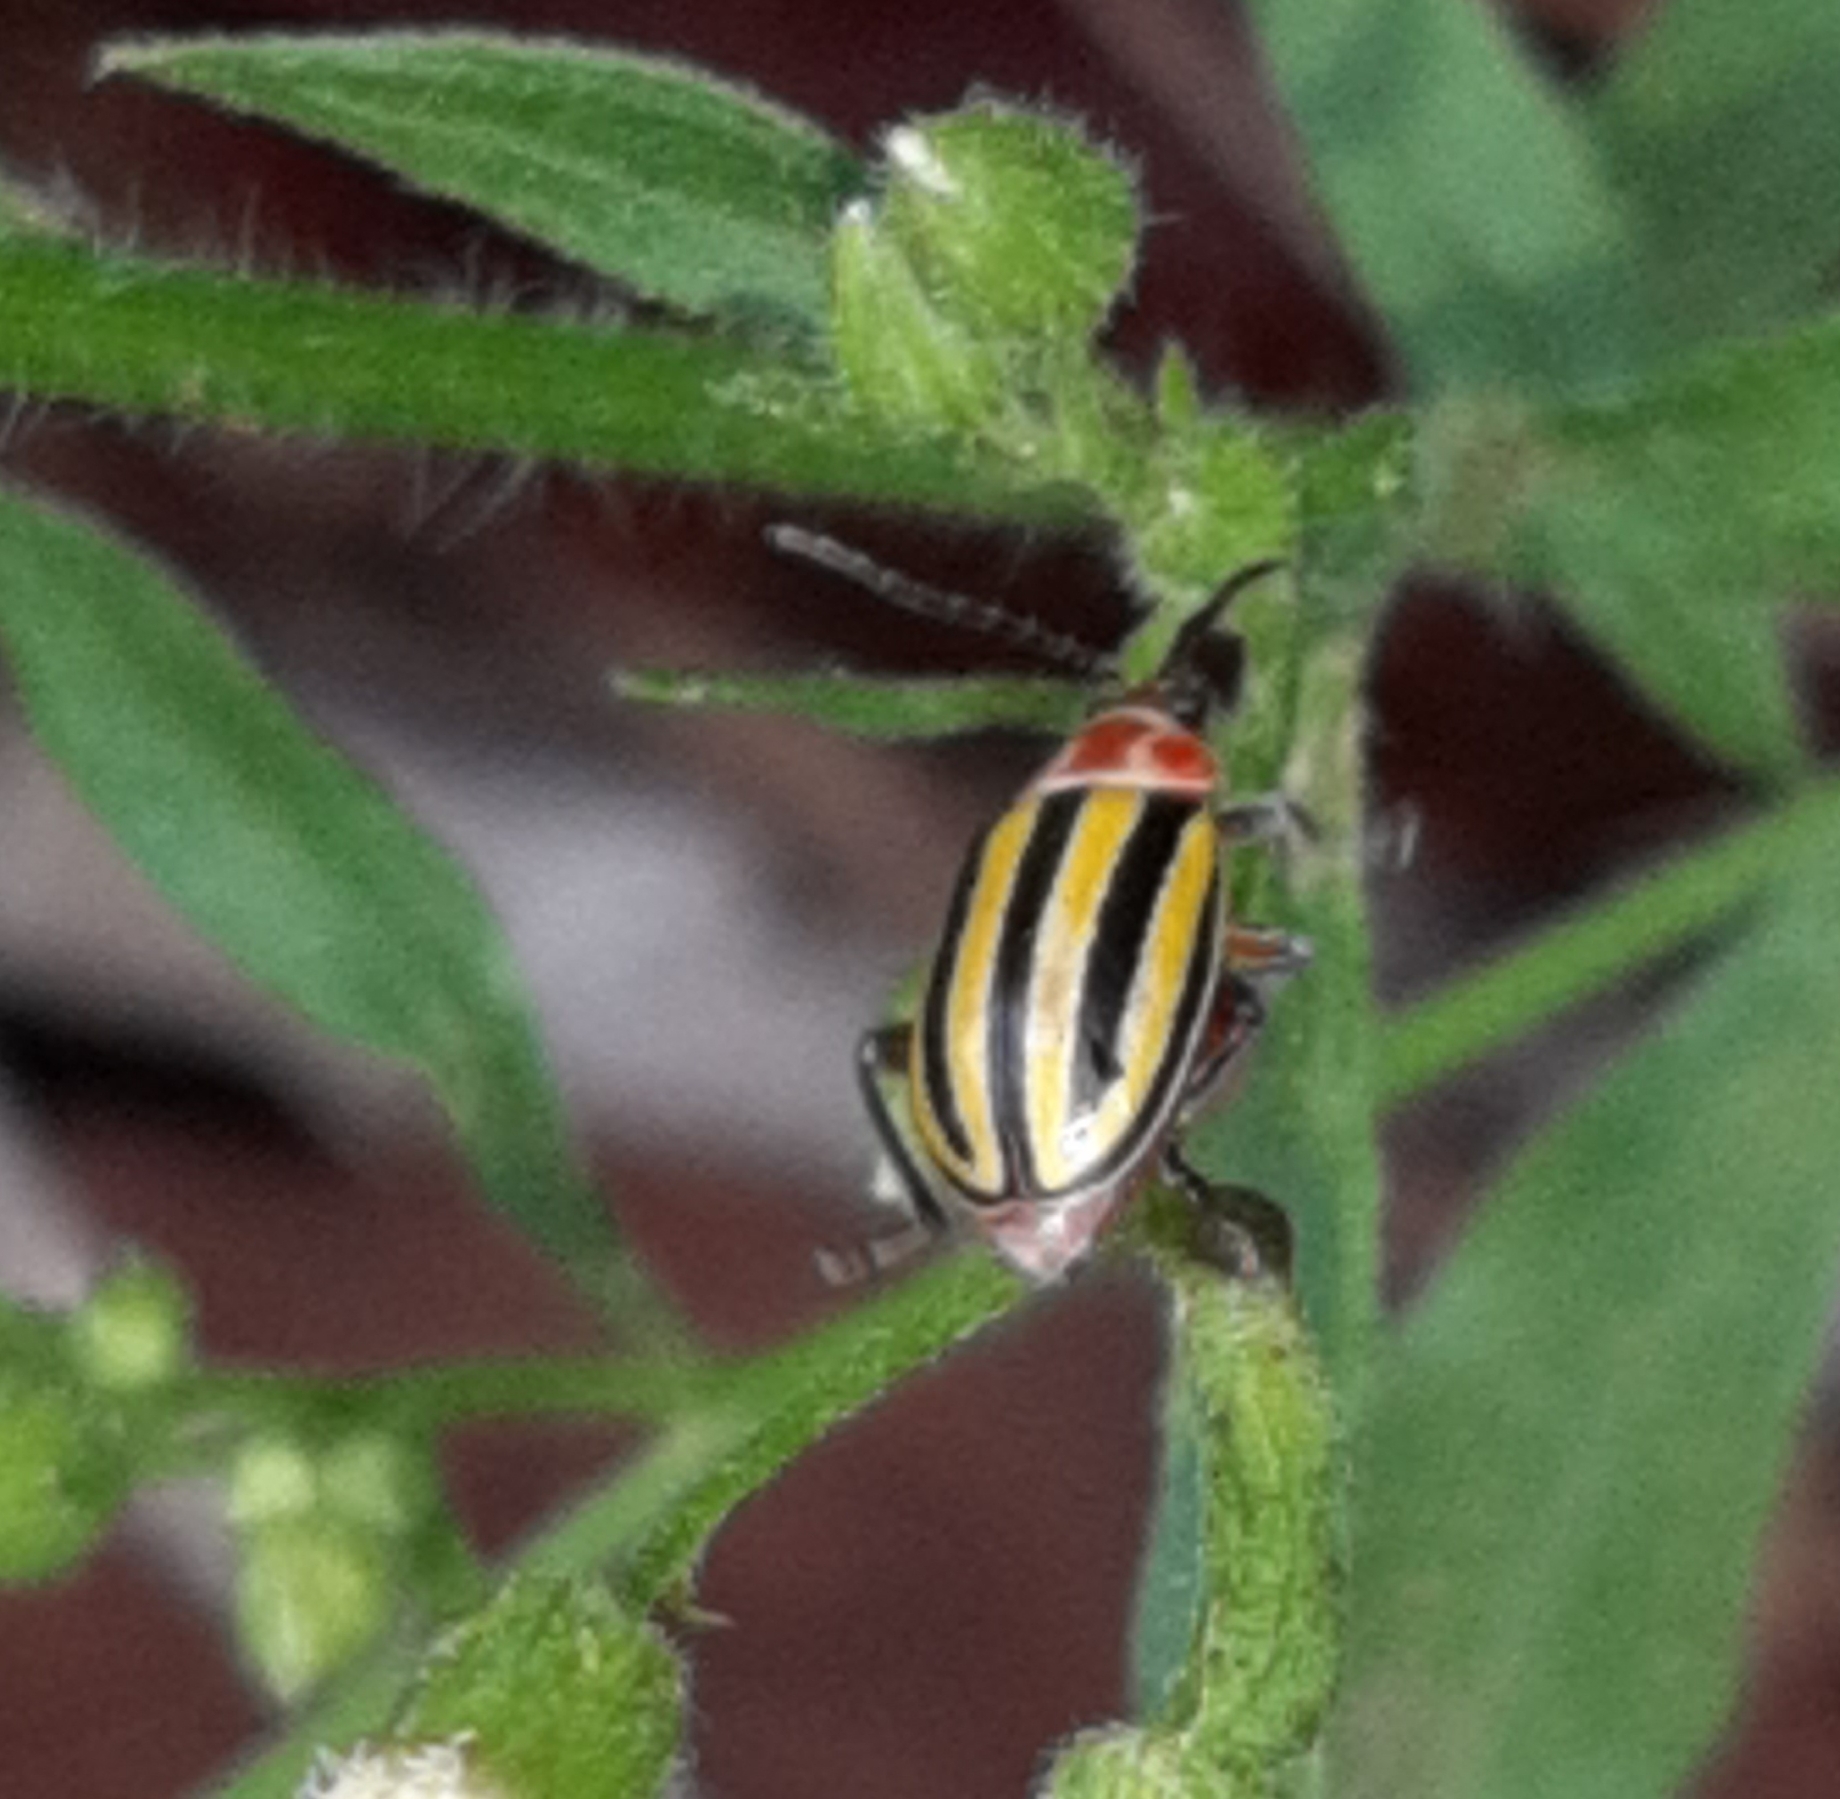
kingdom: Animalia
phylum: Arthropoda
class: Insecta
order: Coleoptera
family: Chrysomelidae
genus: Disonycha
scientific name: Disonycha fumata
